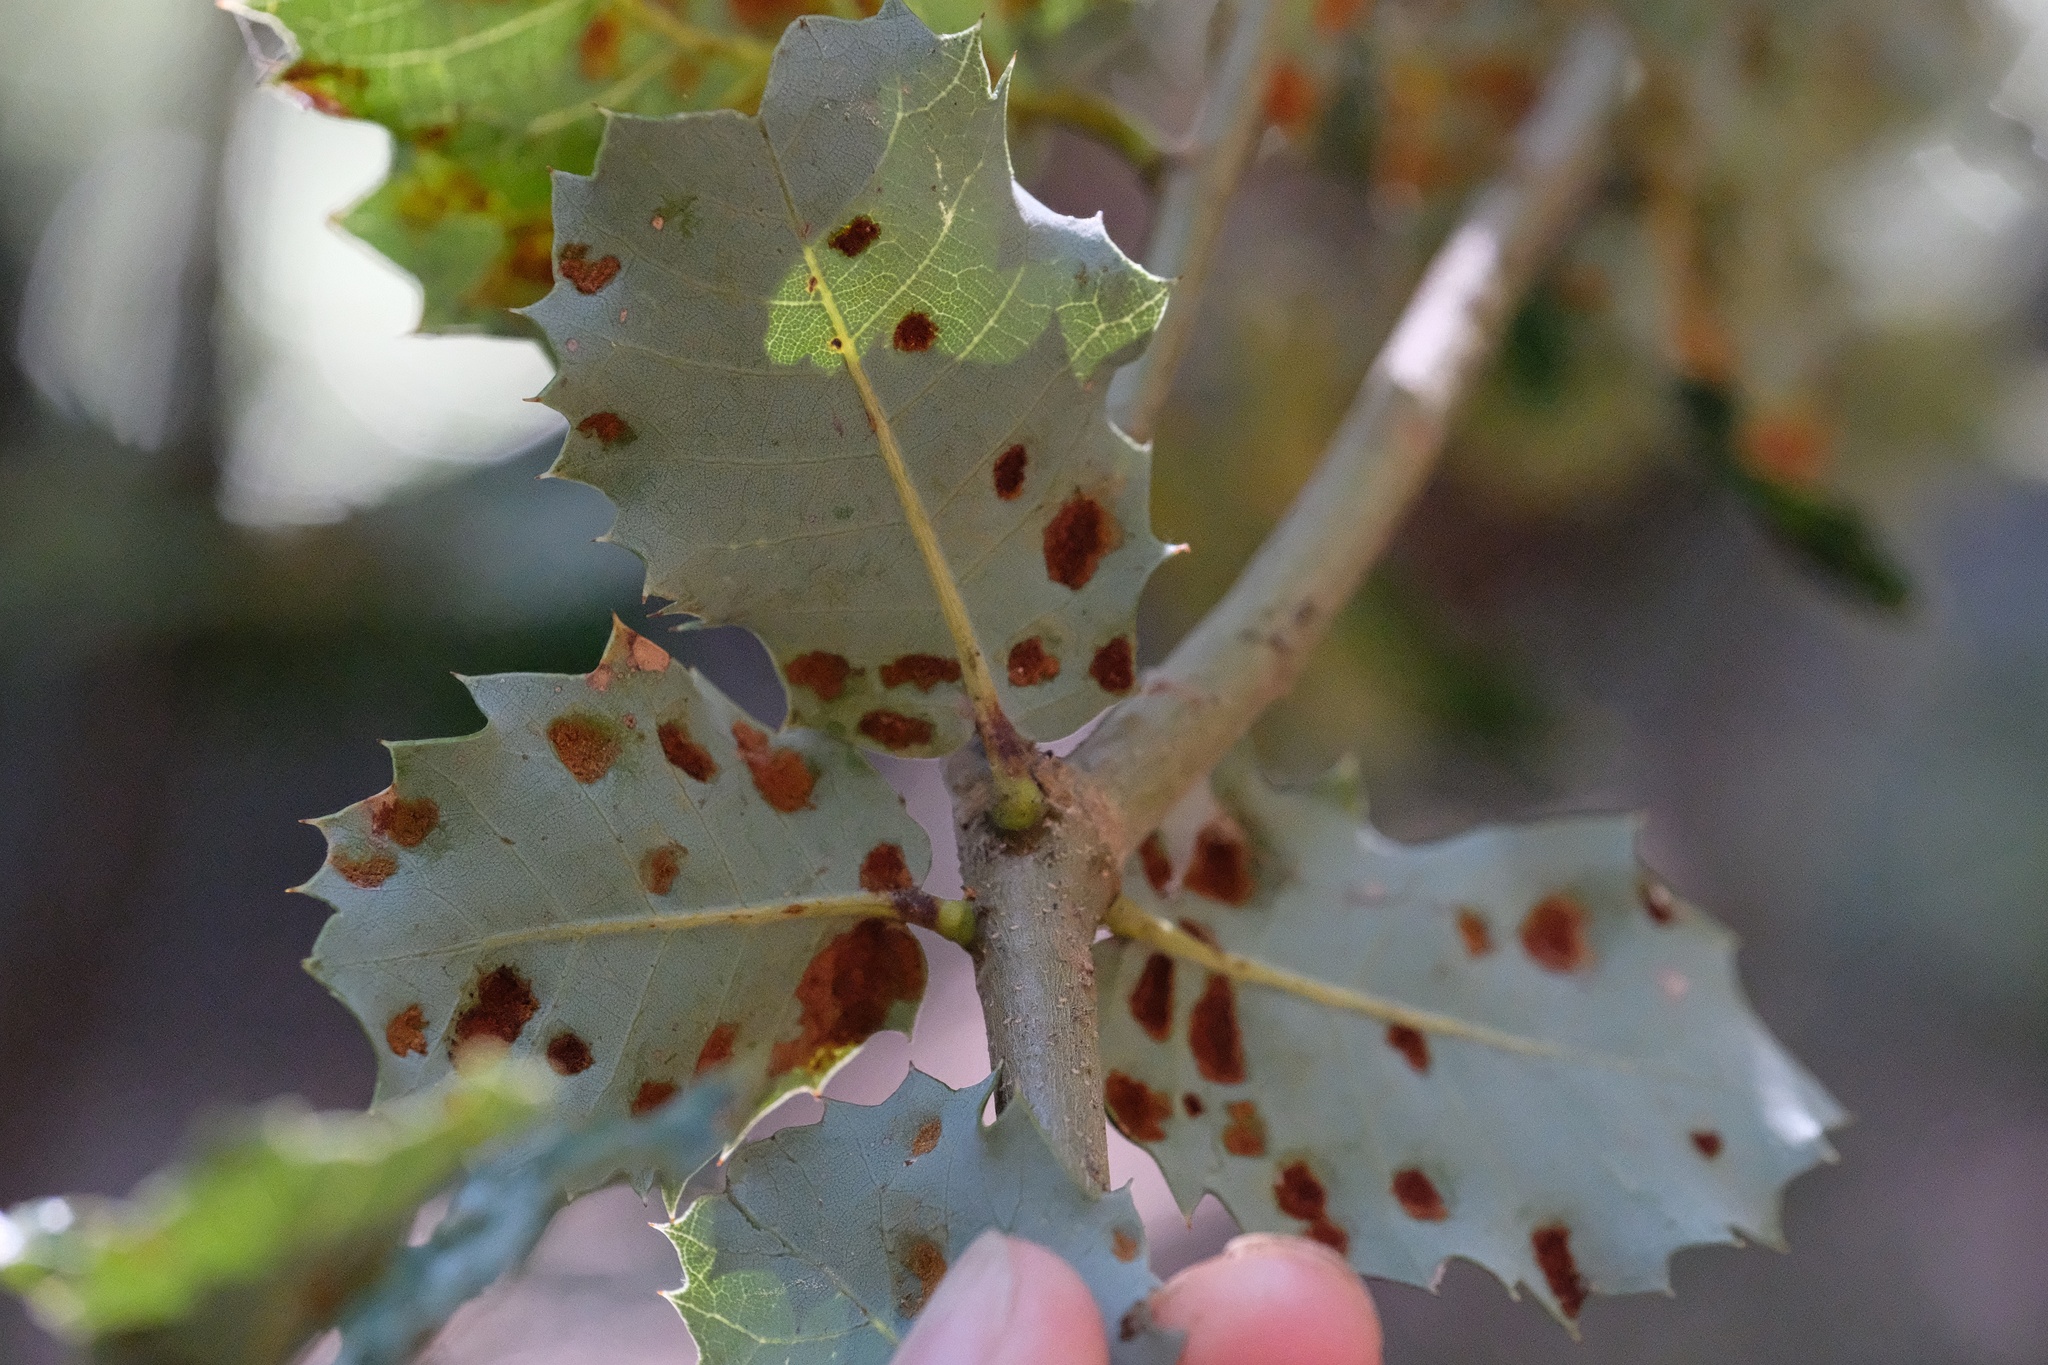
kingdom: Animalia
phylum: Arthropoda
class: Arachnida
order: Trombidiformes
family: Eriophyidae
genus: Aceria
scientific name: Aceria
